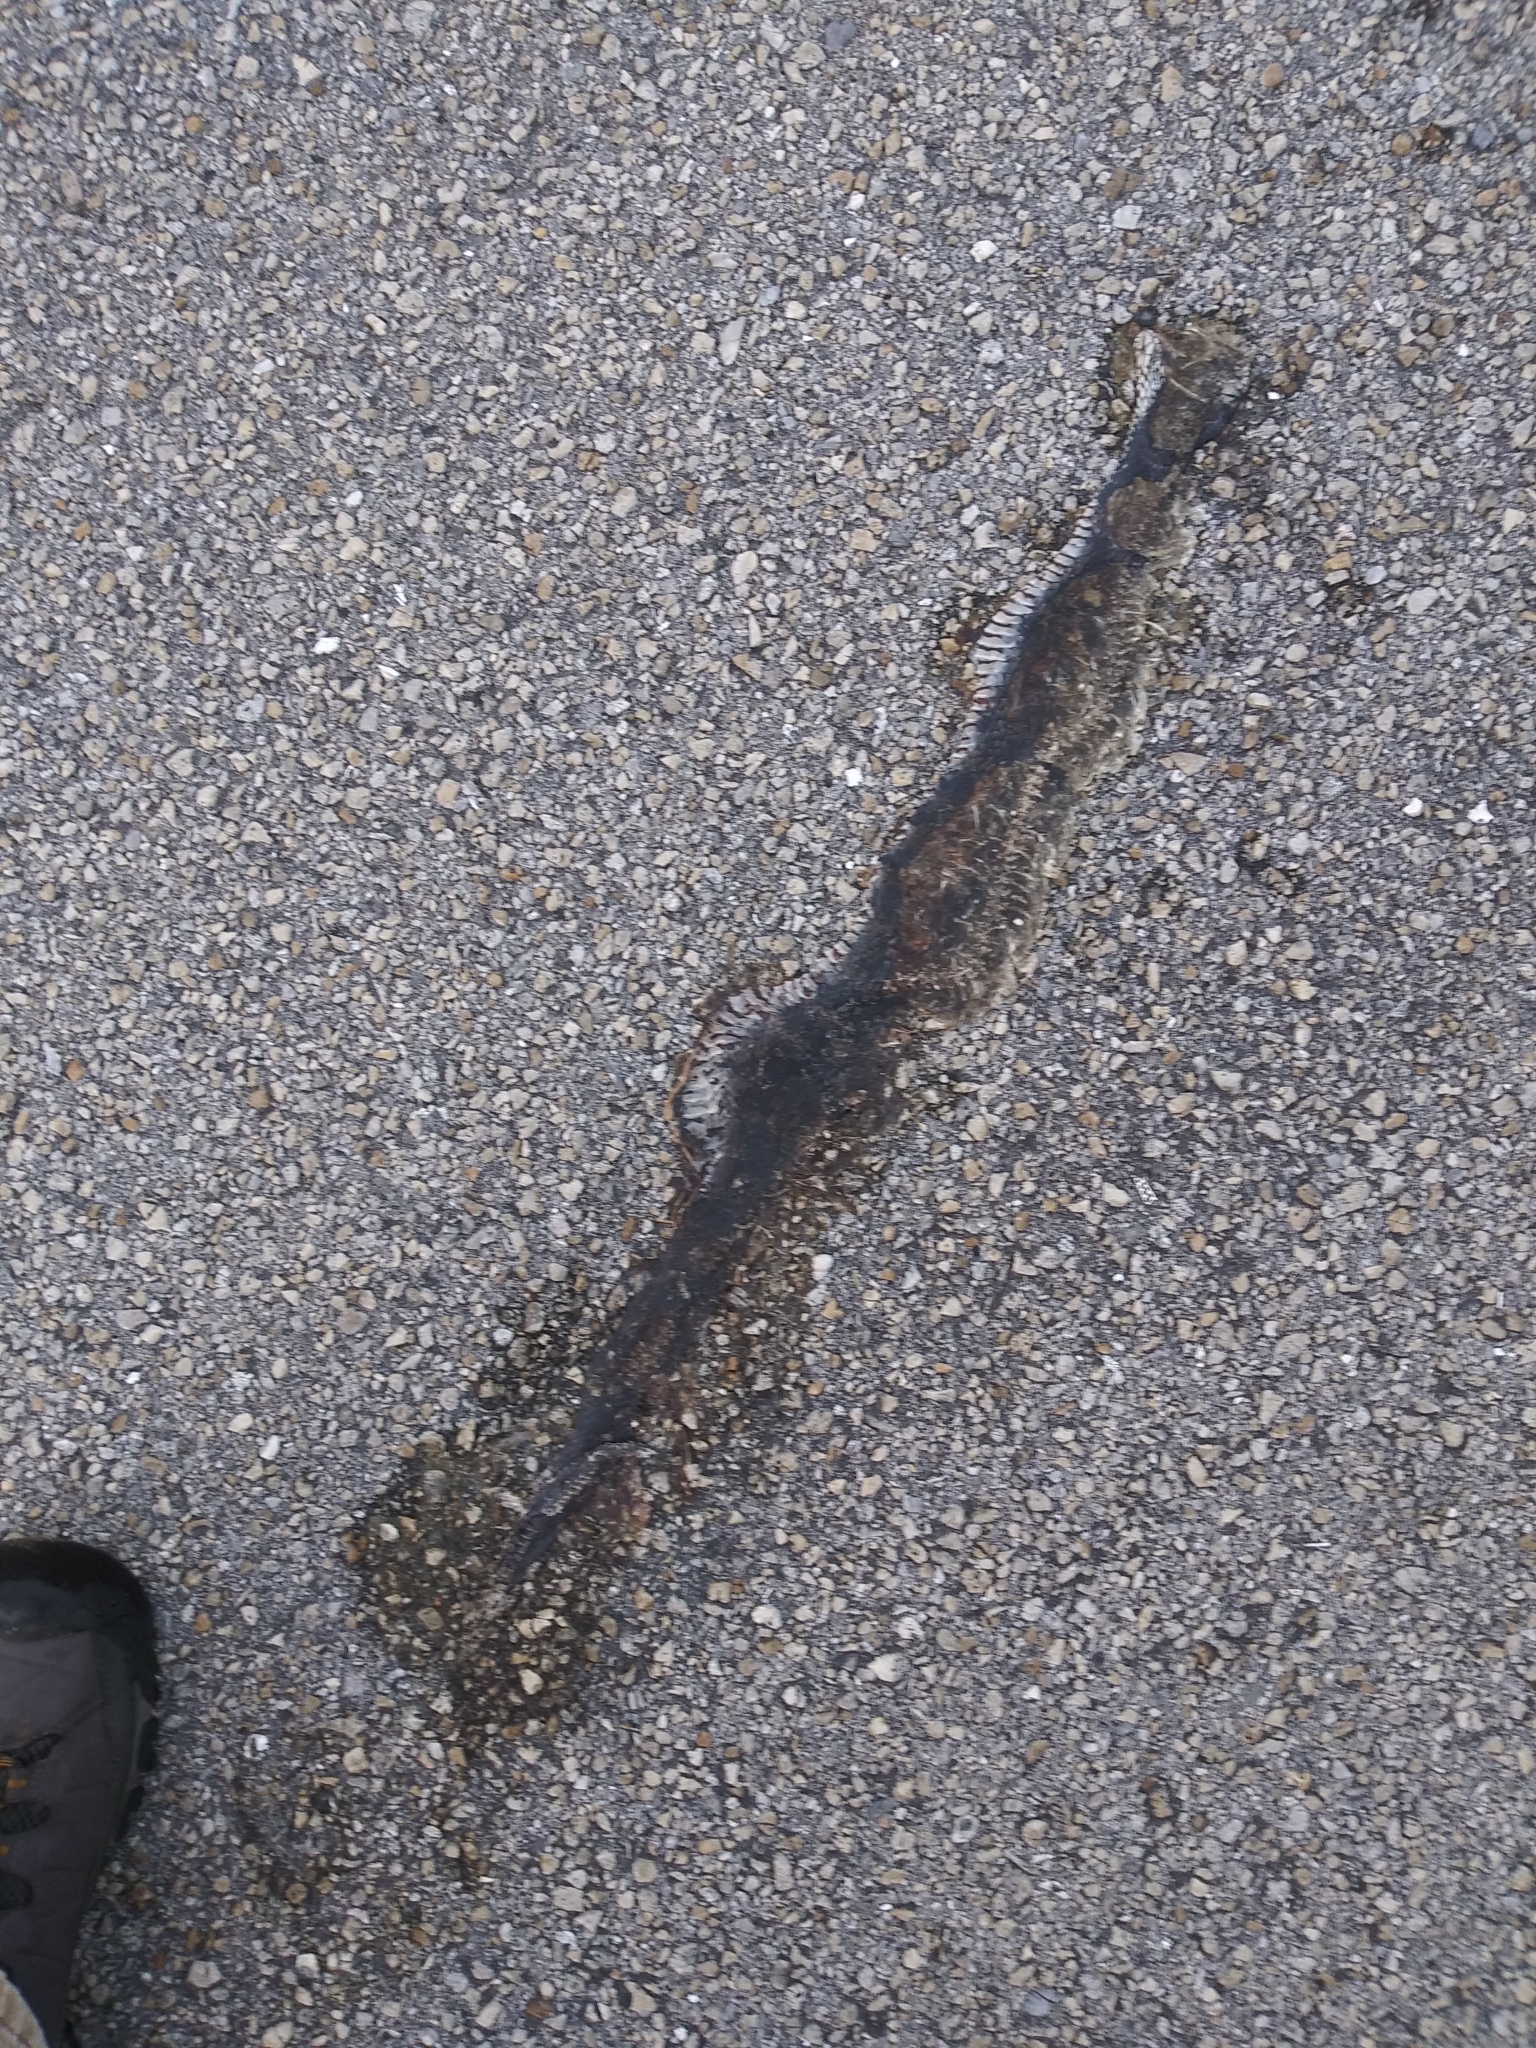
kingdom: Animalia
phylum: Chordata
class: Squamata
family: Colubridae
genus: Nerodia
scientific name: Nerodia fasciata
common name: Southern water snake
